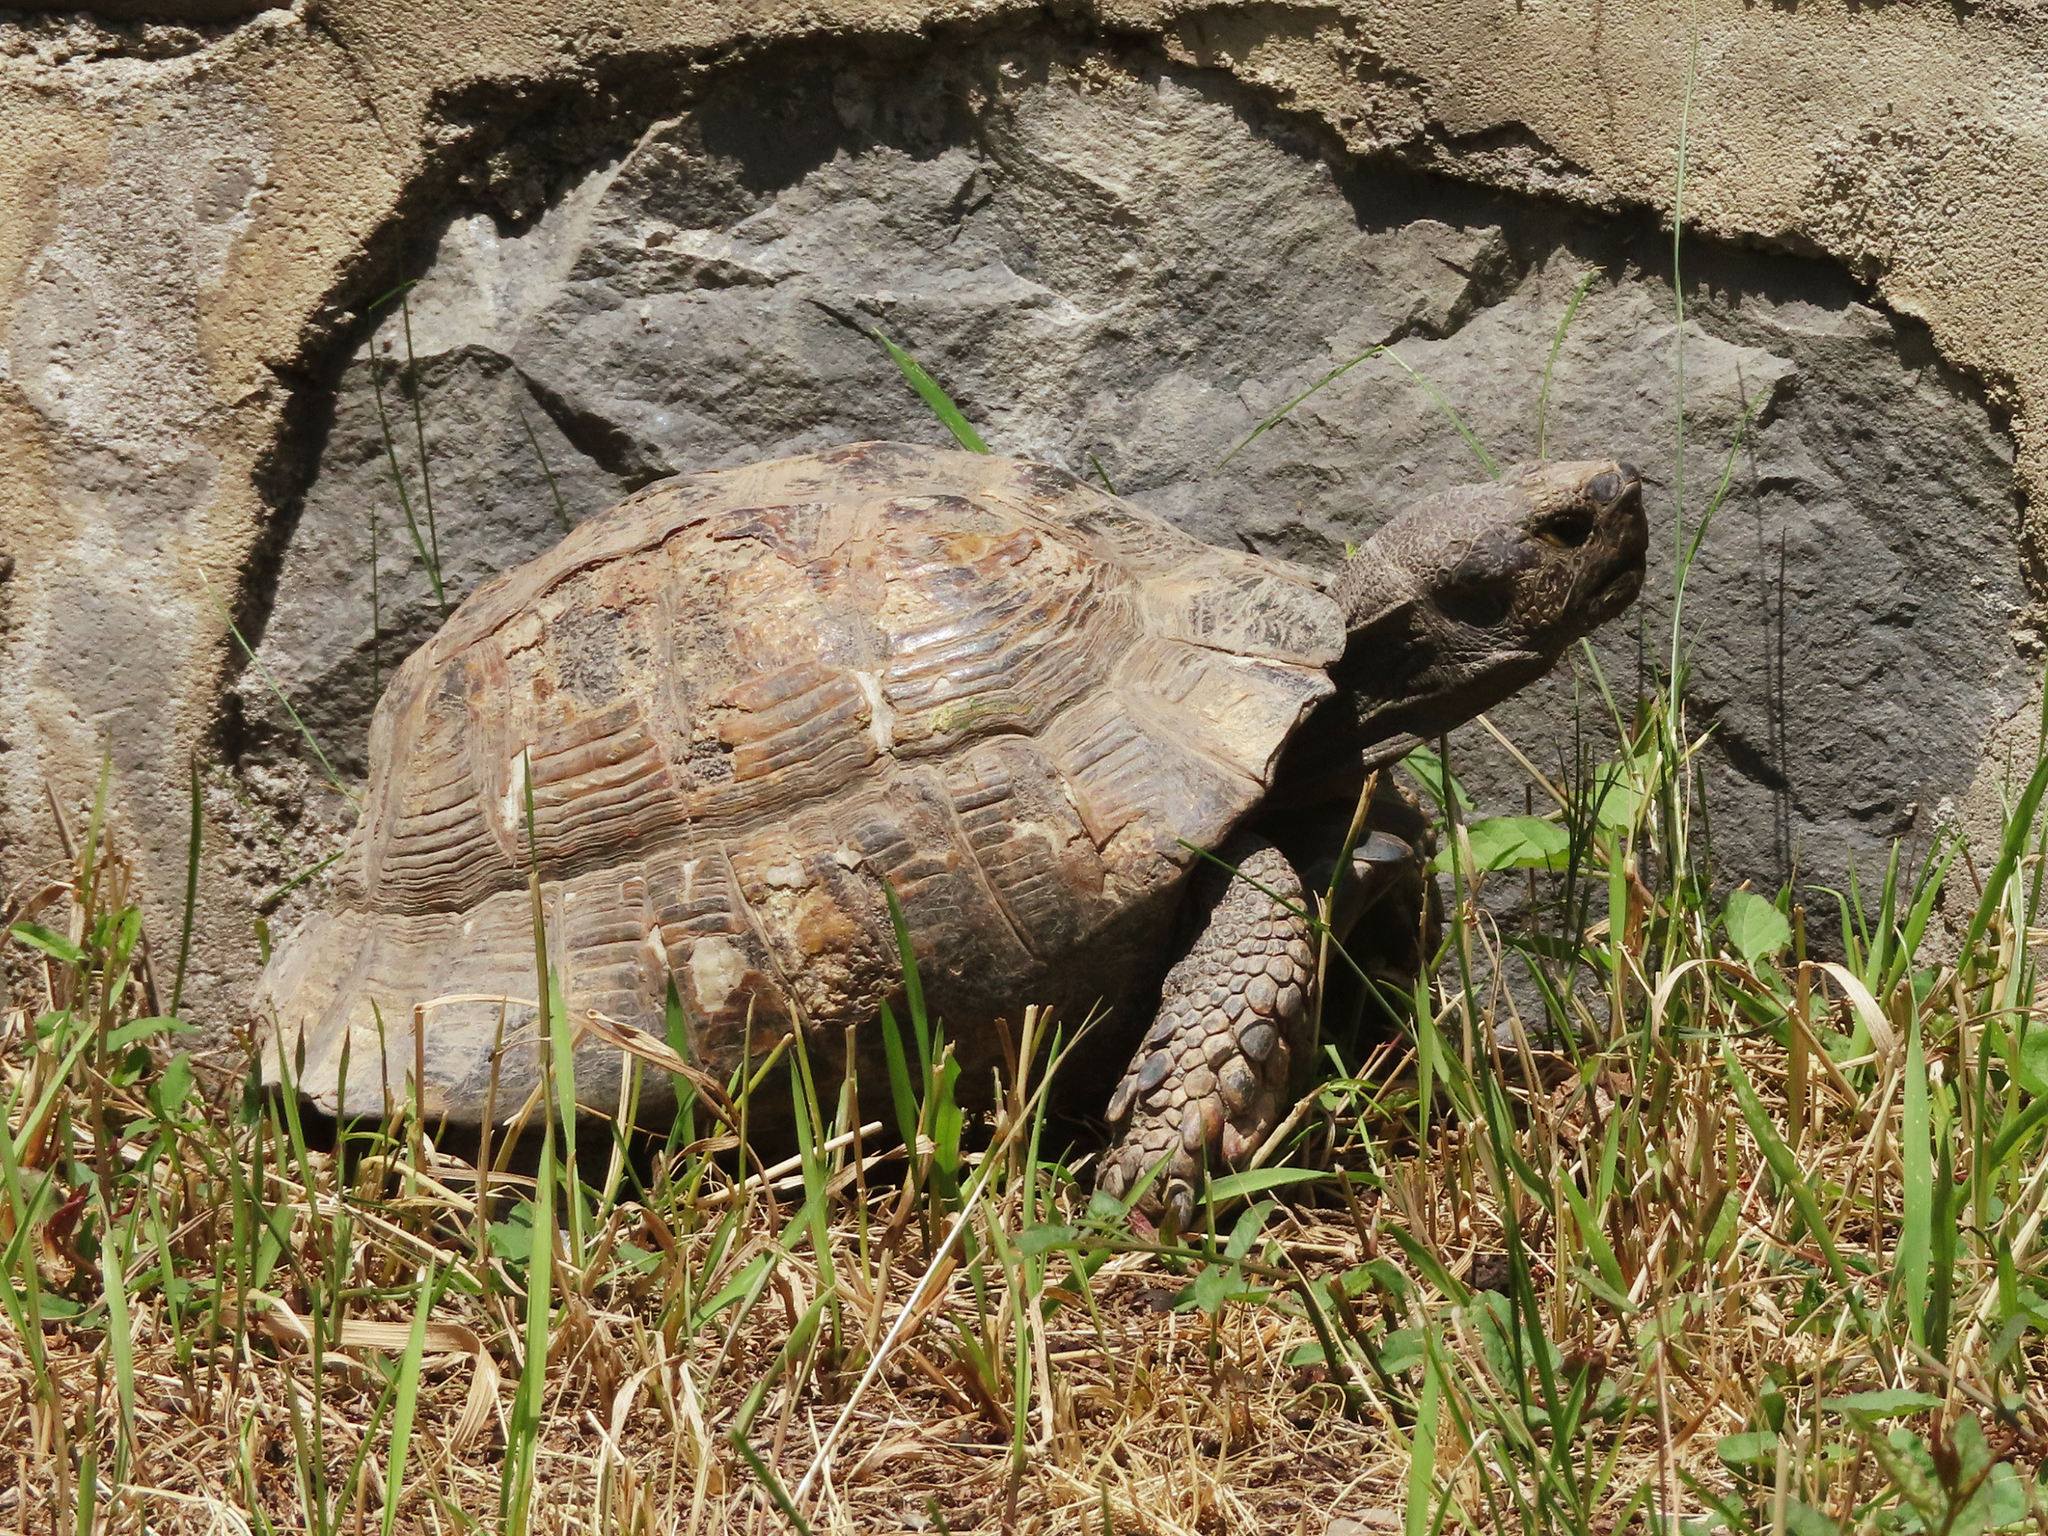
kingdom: Animalia
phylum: Chordata
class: Testudines
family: Testudinidae
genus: Testudo
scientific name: Testudo graeca
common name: Common tortoise
